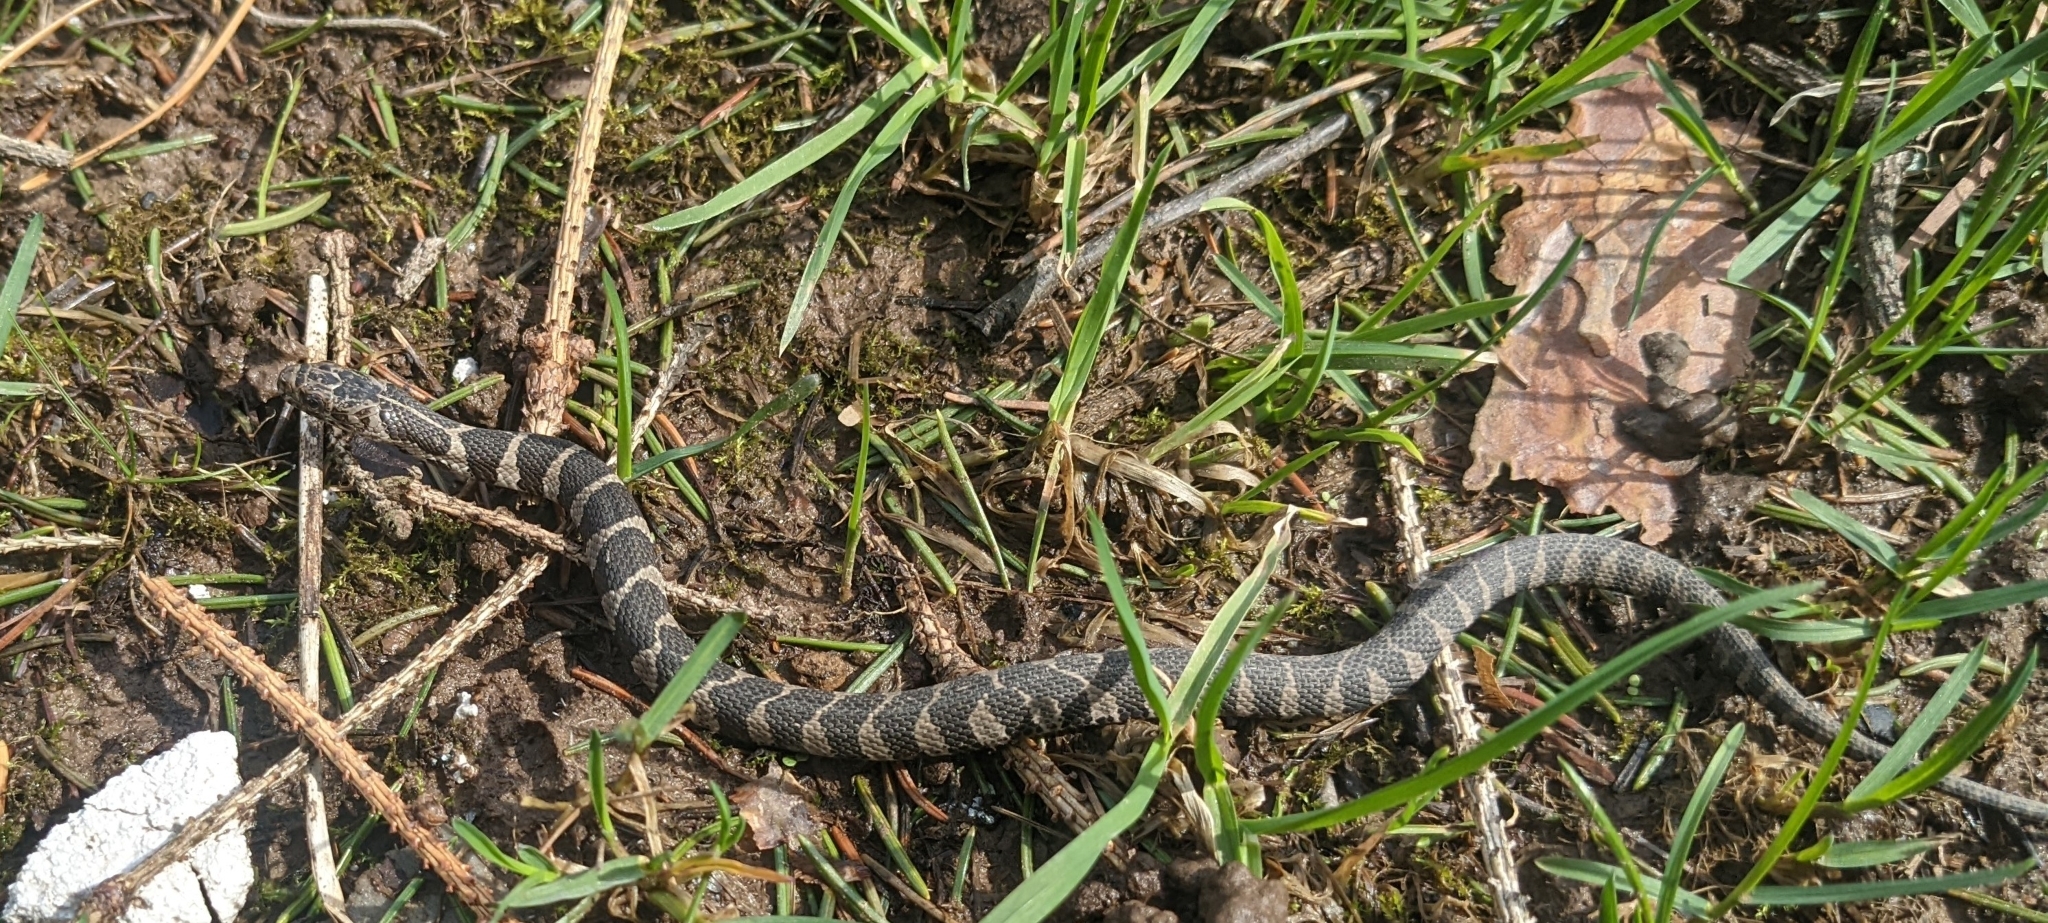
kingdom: Animalia
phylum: Chordata
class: Squamata
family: Colubridae
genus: Nerodia
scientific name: Nerodia sipedon
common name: Northern water snake
